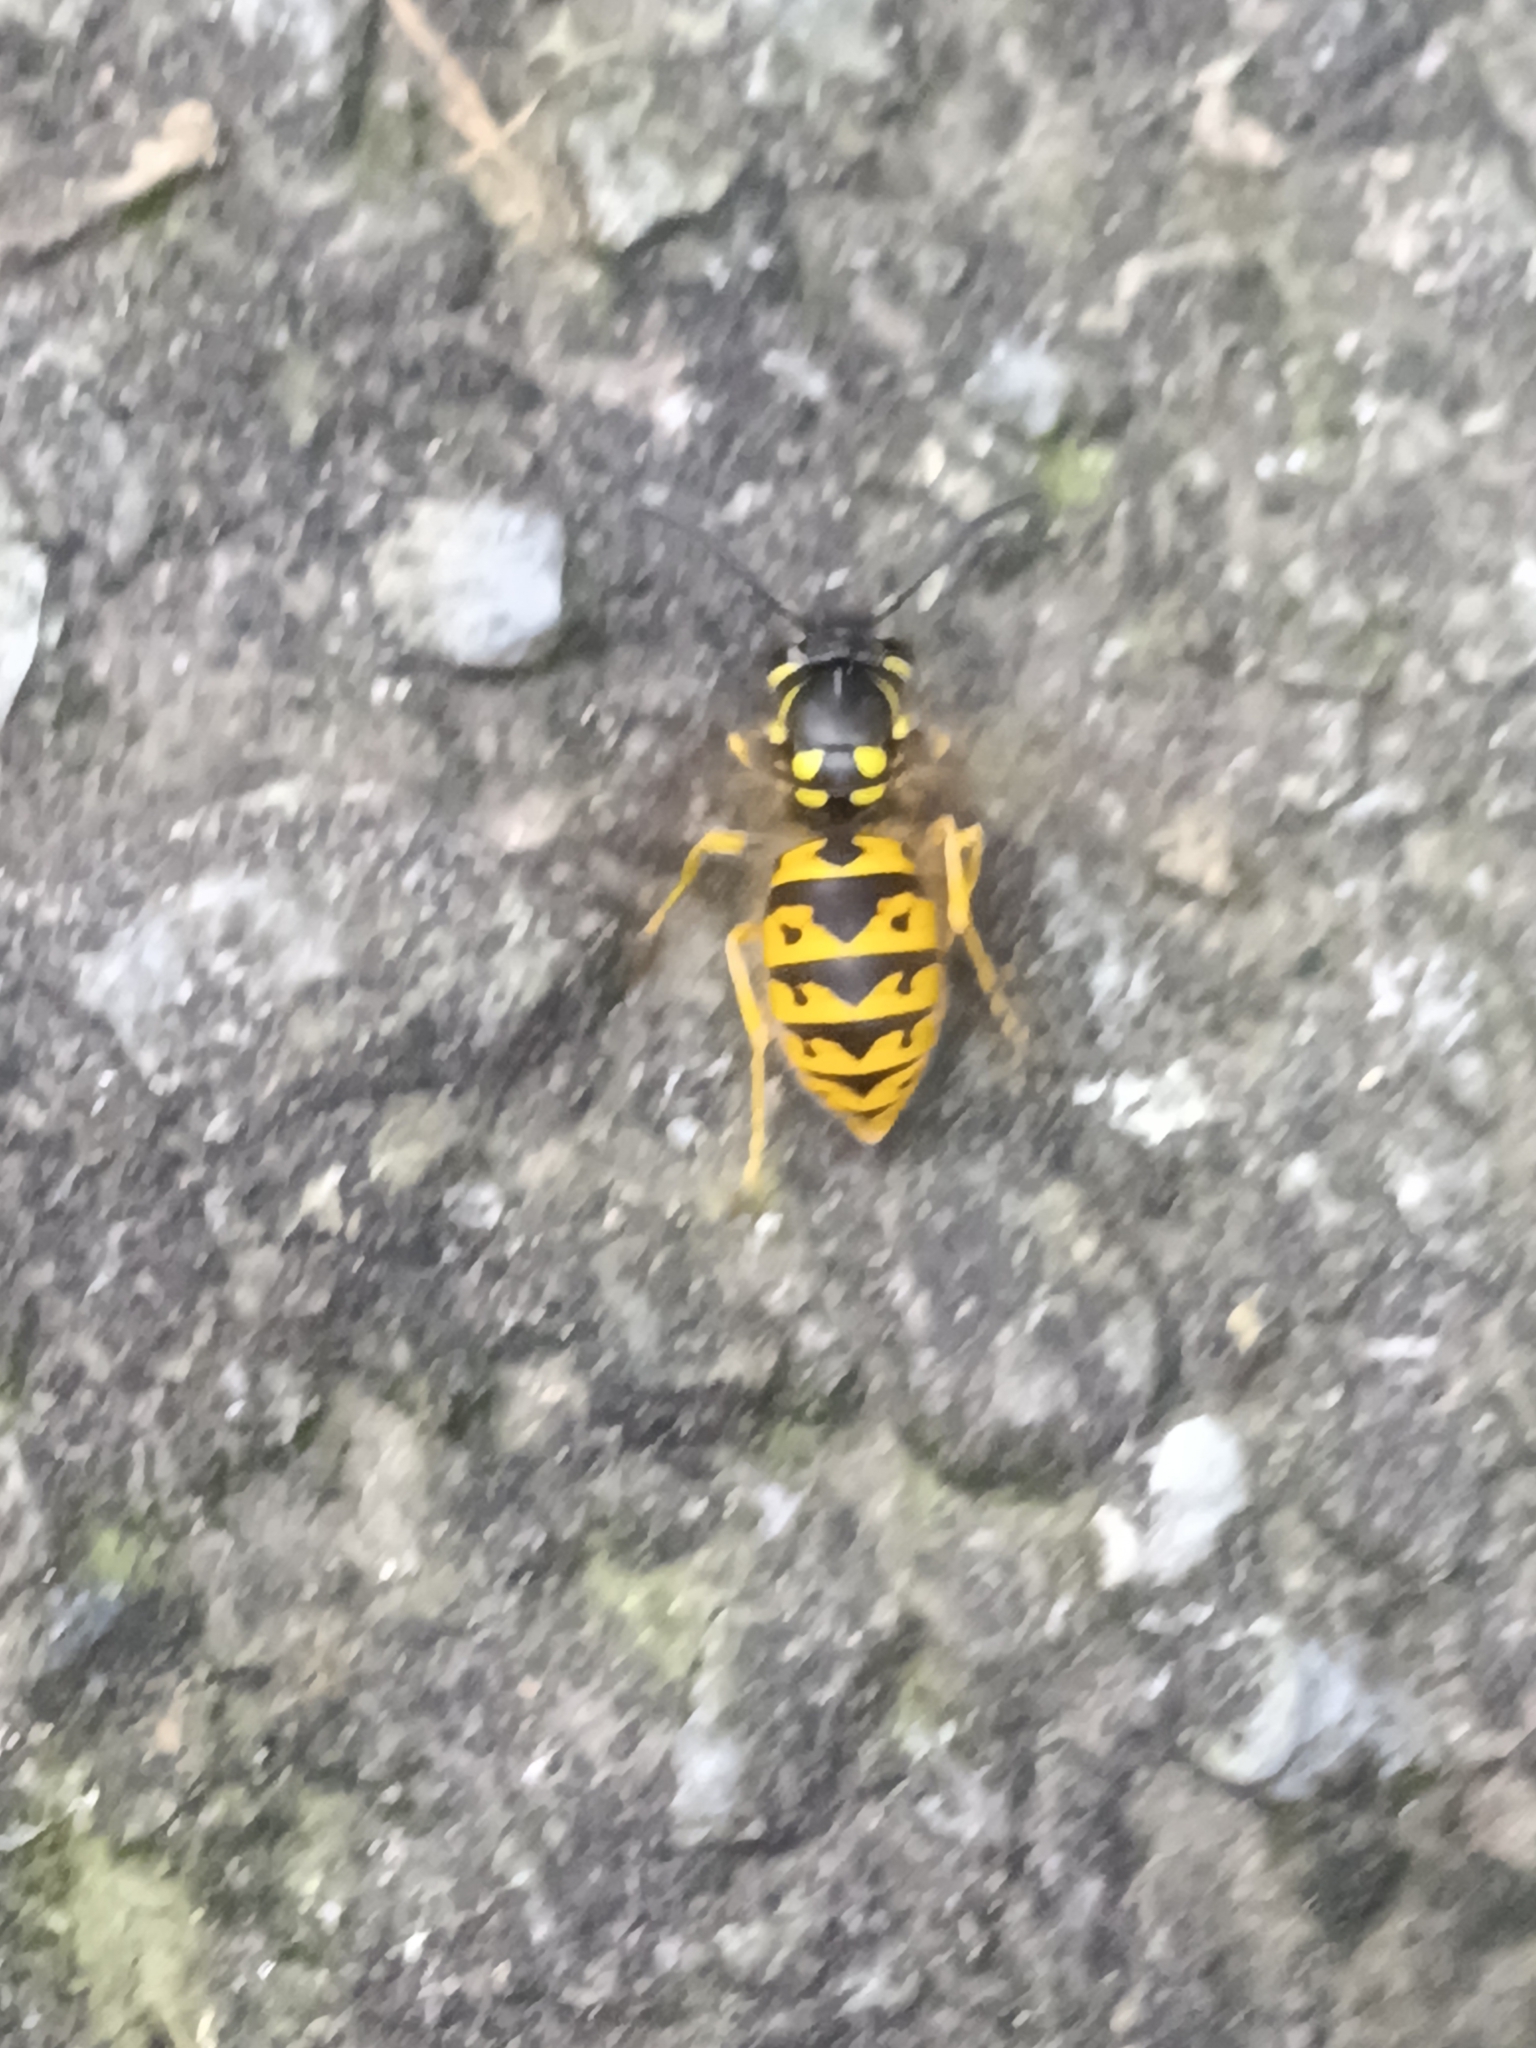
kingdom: Animalia
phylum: Arthropoda
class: Insecta
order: Hymenoptera
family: Vespidae
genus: Vespula
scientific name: Vespula germanica
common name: German wasp
